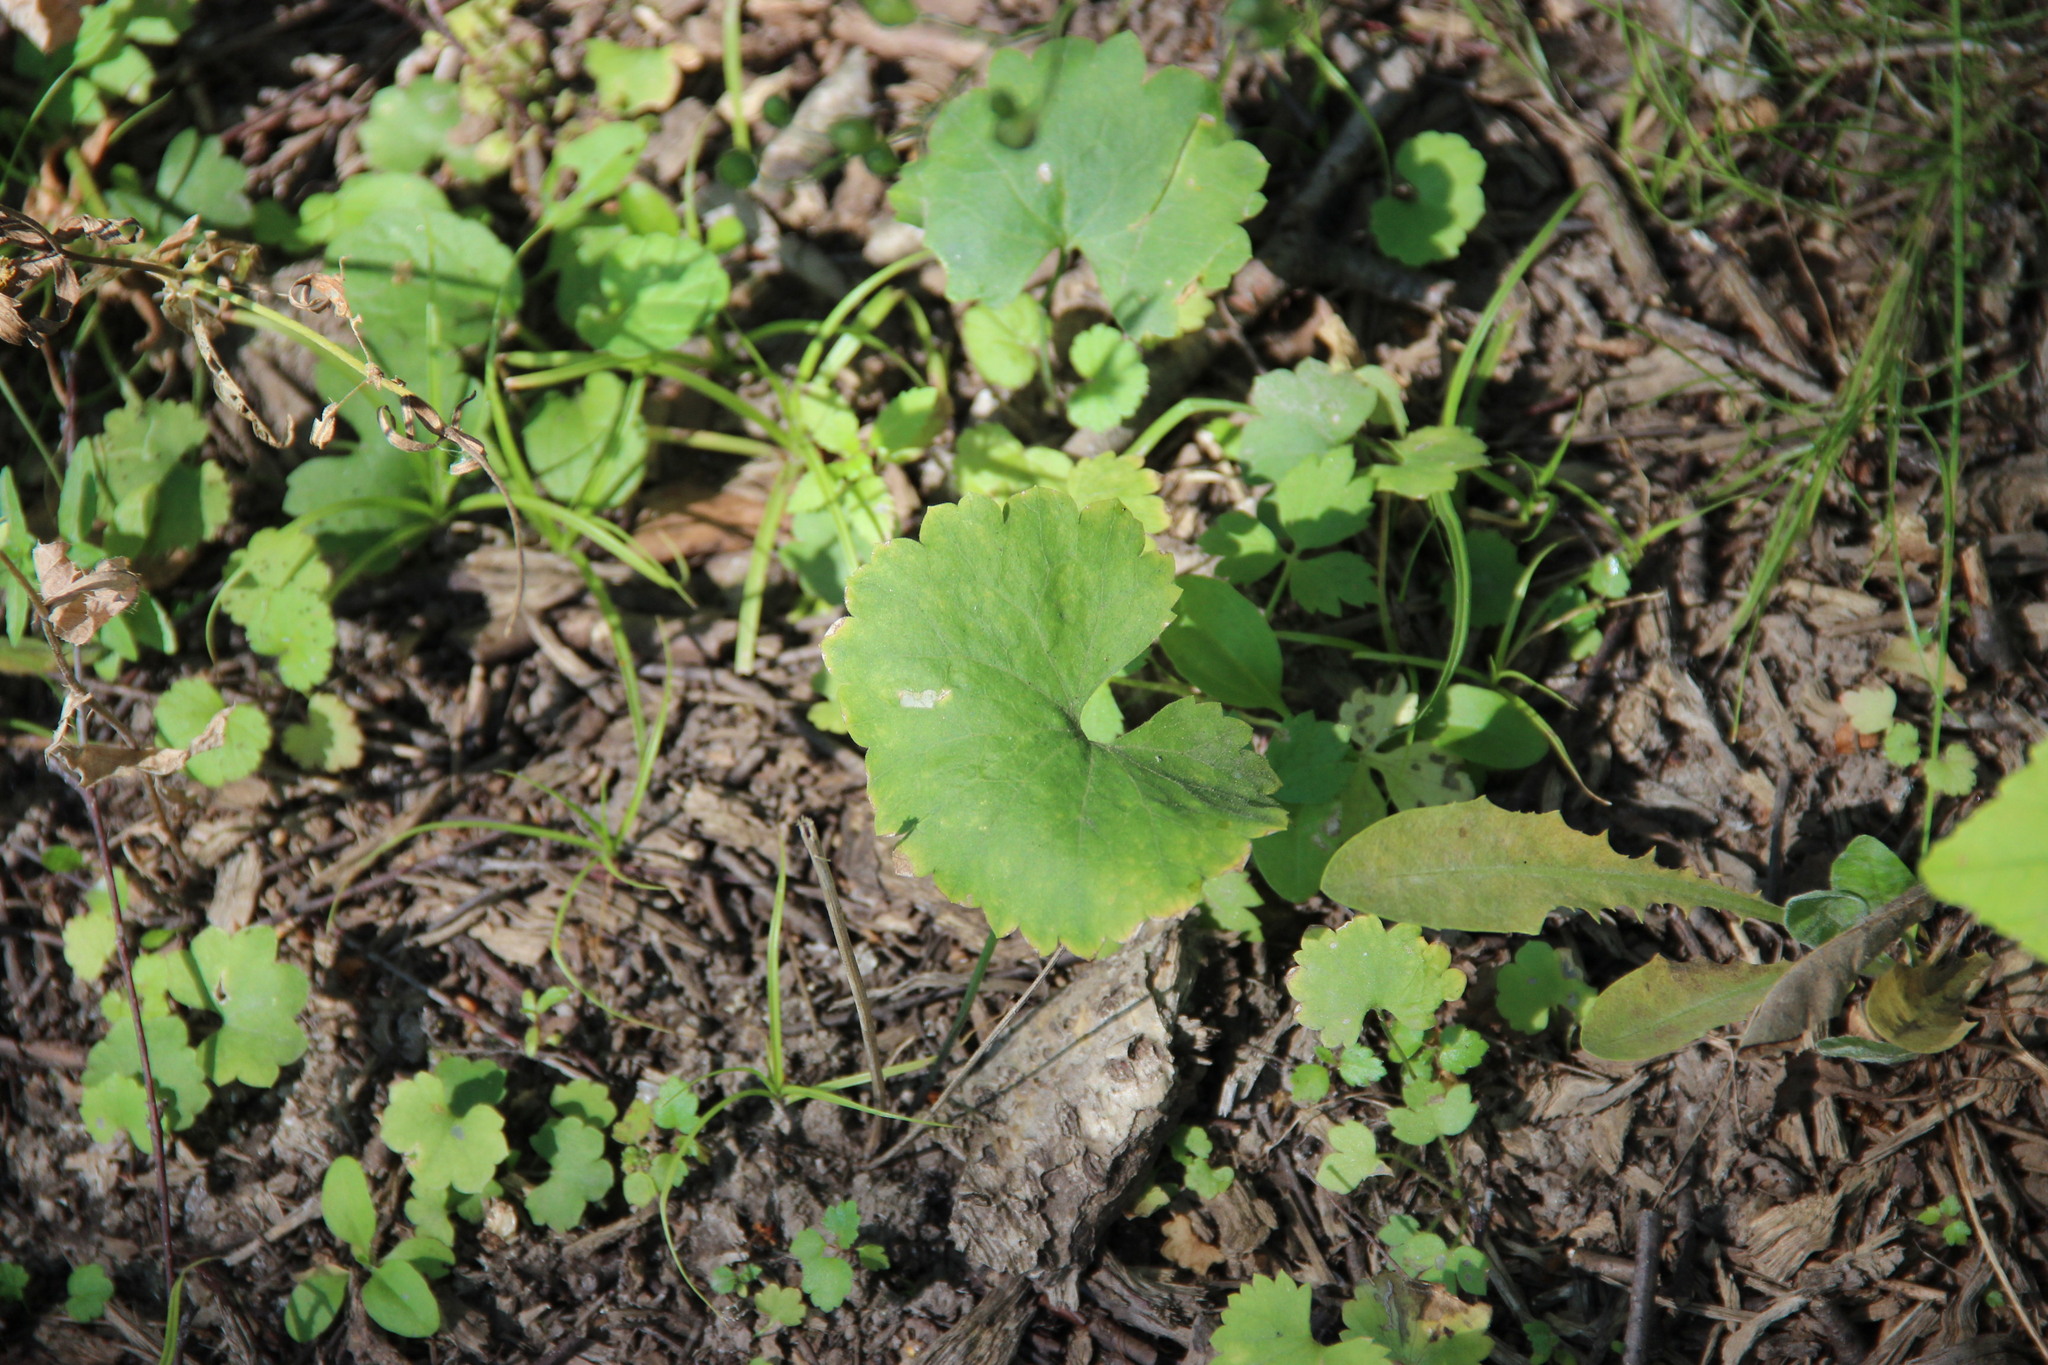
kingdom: Plantae
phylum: Tracheophyta
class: Magnoliopsida
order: Ranunculales
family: Ranunculaceae
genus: Ranunculus
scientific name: Ranunculus cassubicus
